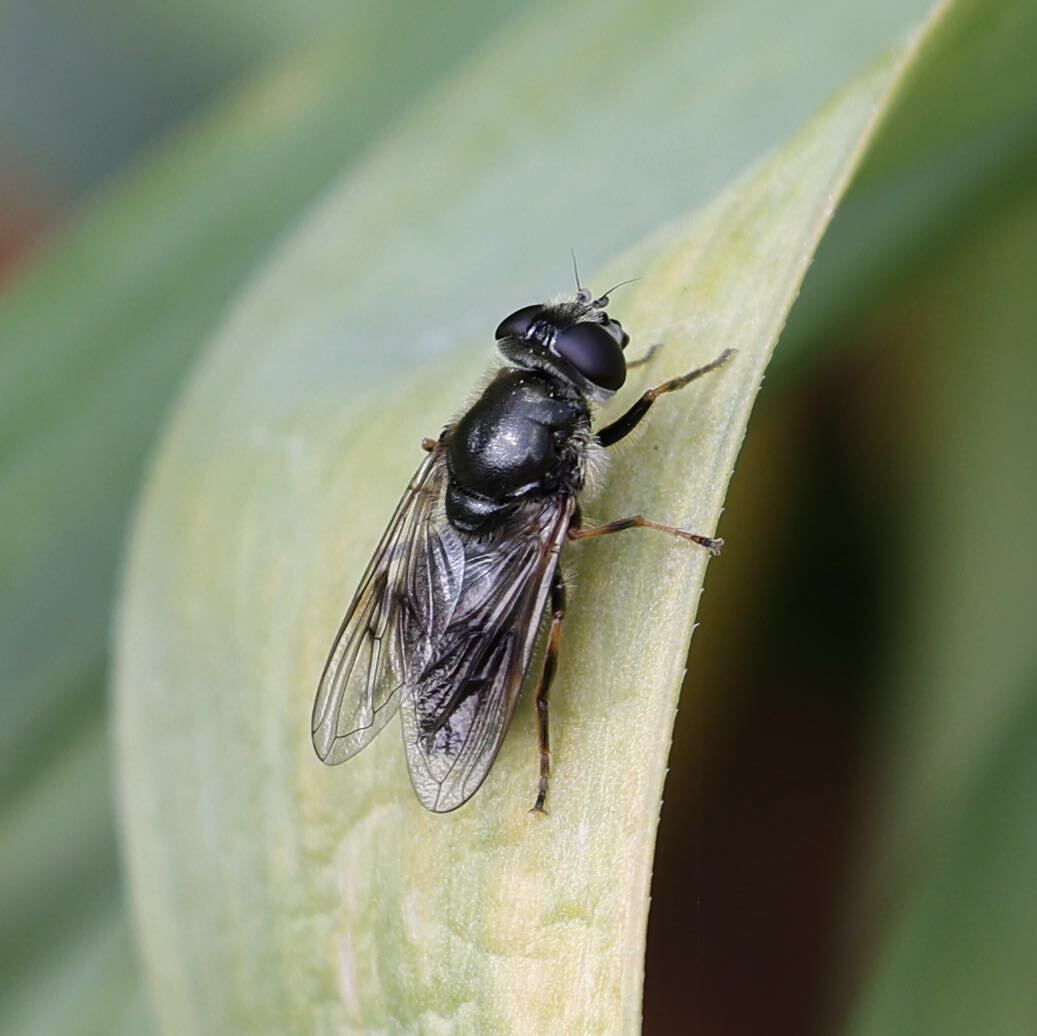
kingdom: Animalia
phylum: Arthropoda
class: Insecta
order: Diptera
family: Syrphidae
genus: Cheilosia
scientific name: Cheilosia caerulescens
